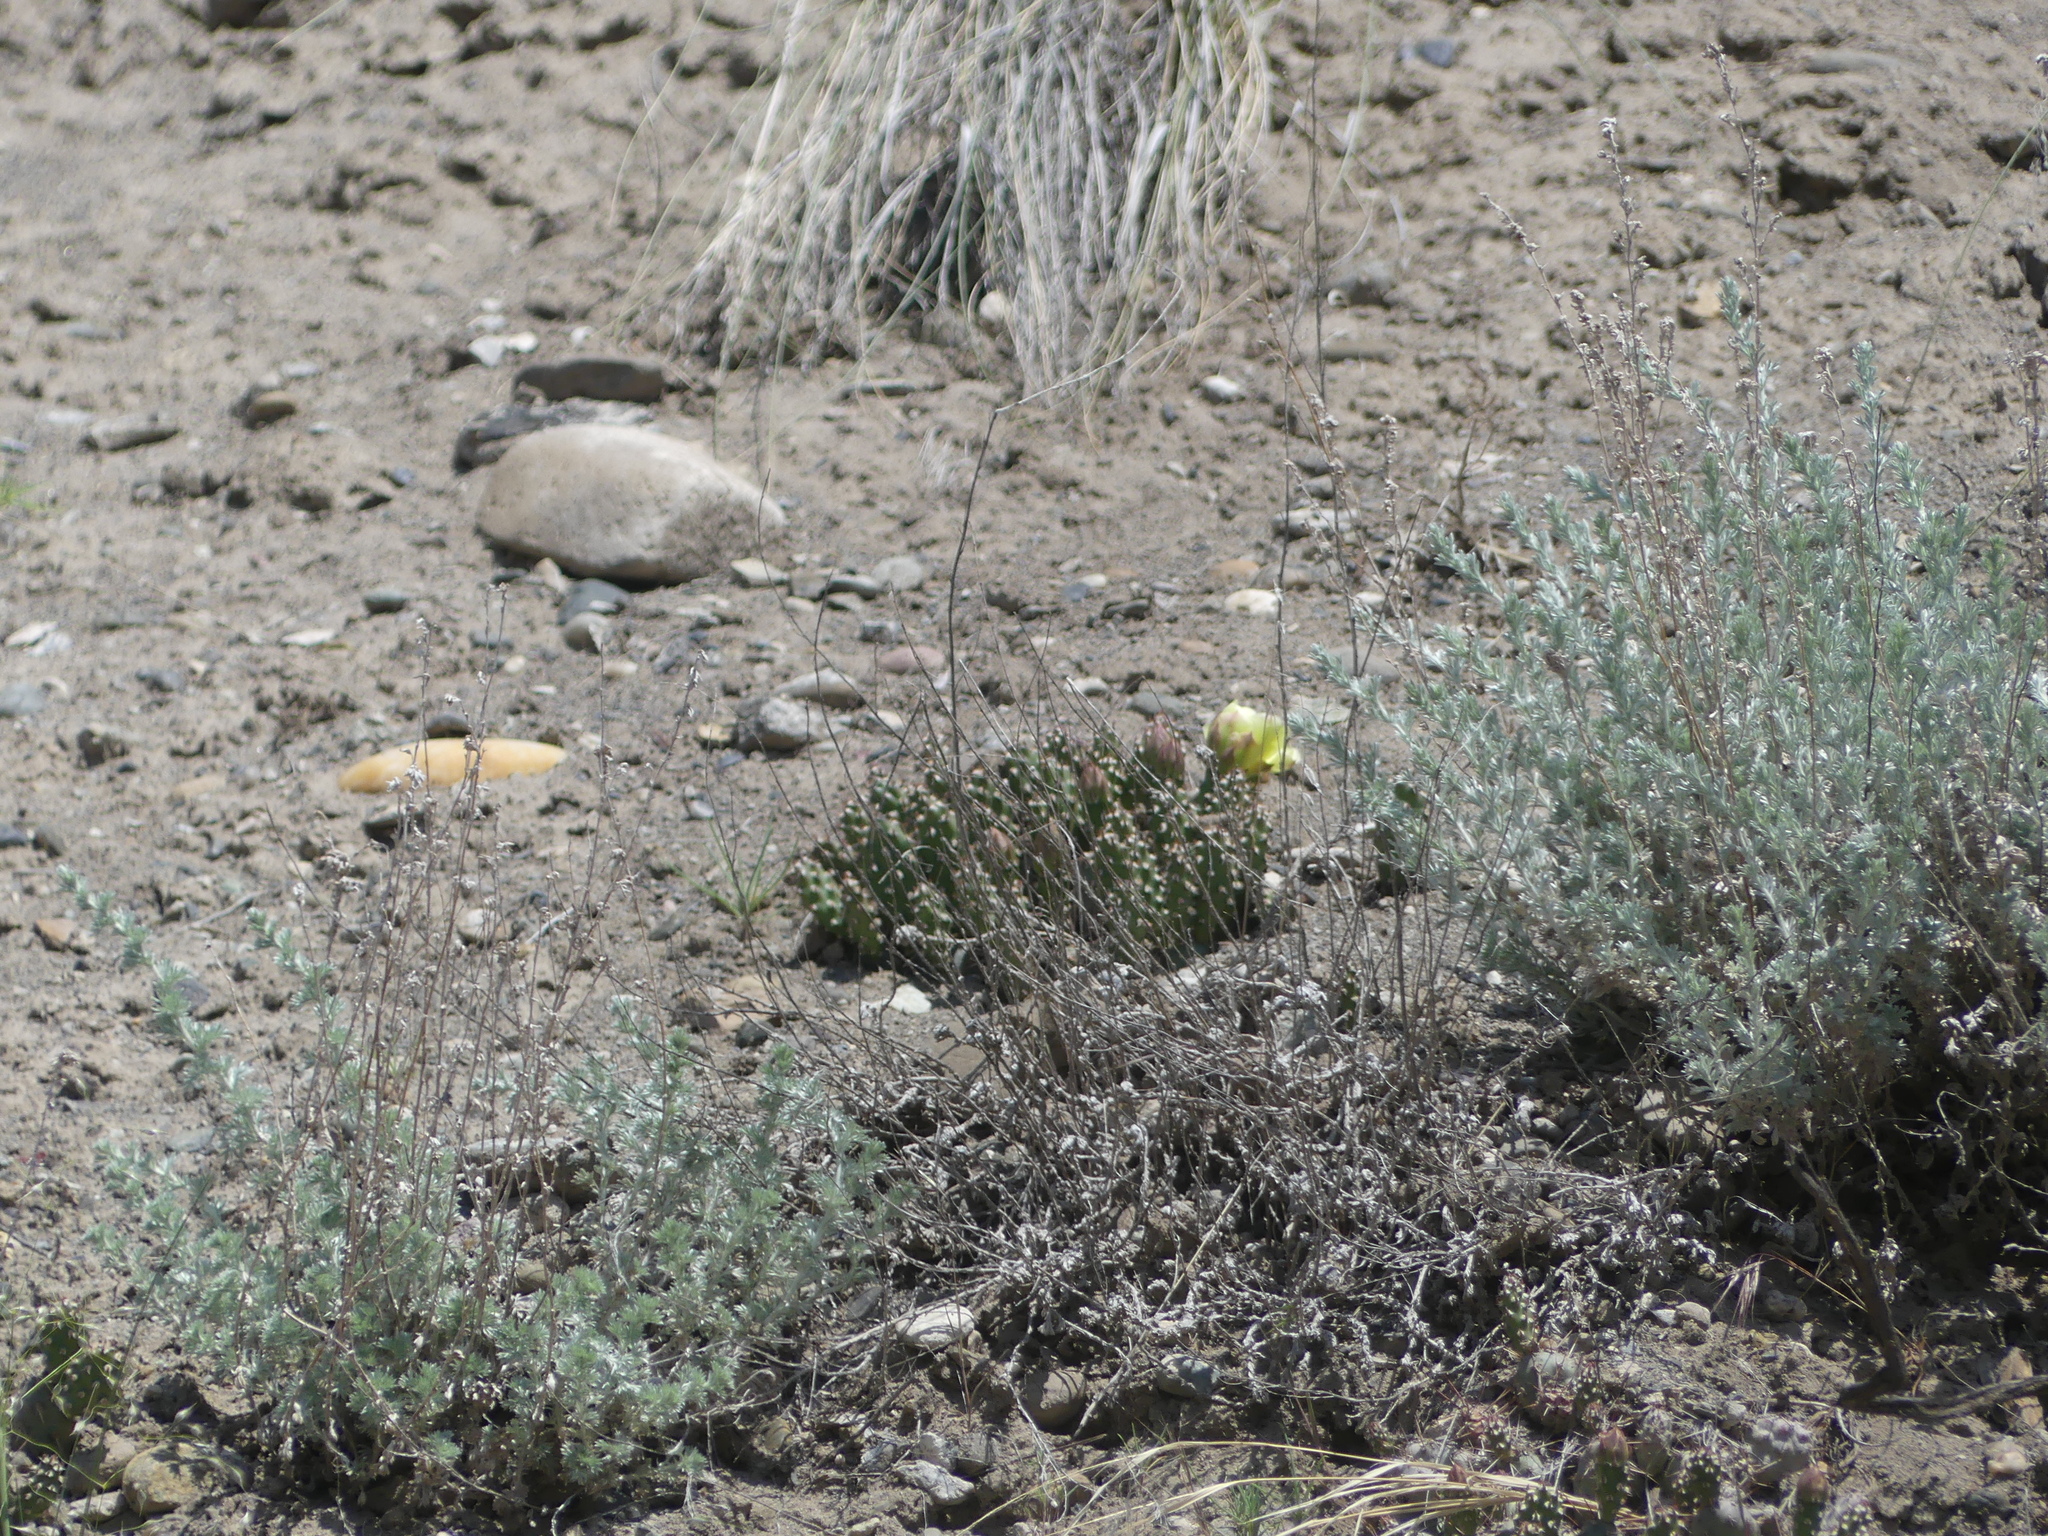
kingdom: Plantae
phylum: Tracheophyta
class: Magnoliopsida
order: Caryophyllales
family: Cactaceae
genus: Opuntia
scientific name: Opuntia fragilis
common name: Brittle cactus
